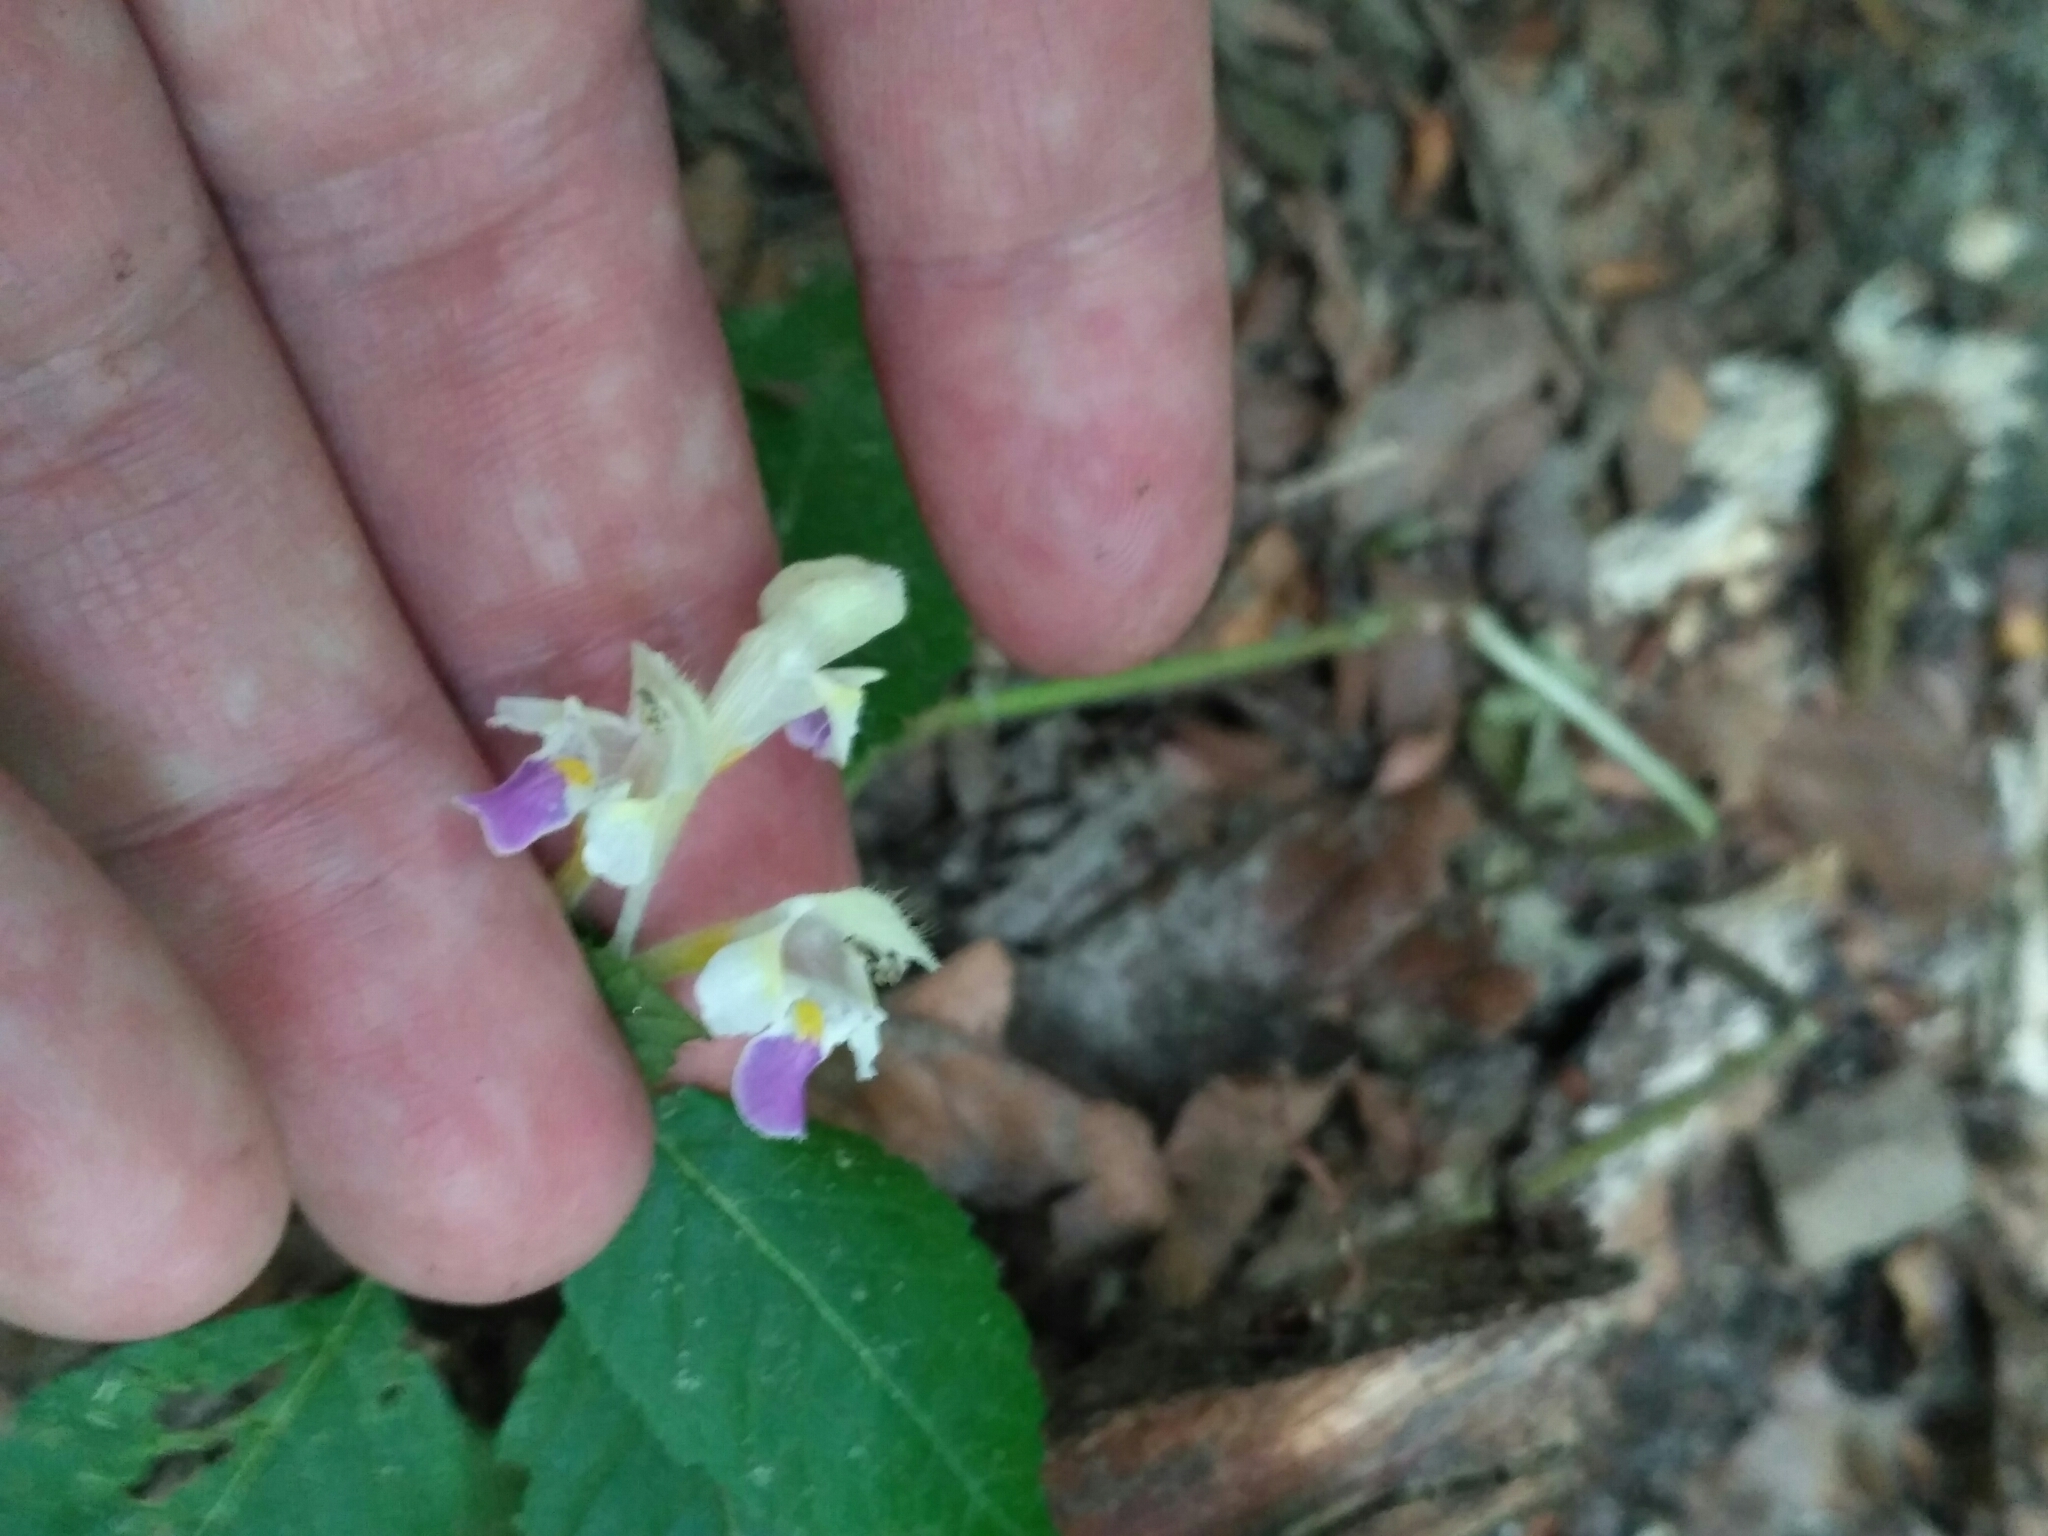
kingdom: Plantae
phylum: Tracheophyta
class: Magnoliopsida
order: Lamiales
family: Lamiaceae
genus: Galeopsis
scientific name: Galeopsis speciosa
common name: Large-flowered hemp-nettle
